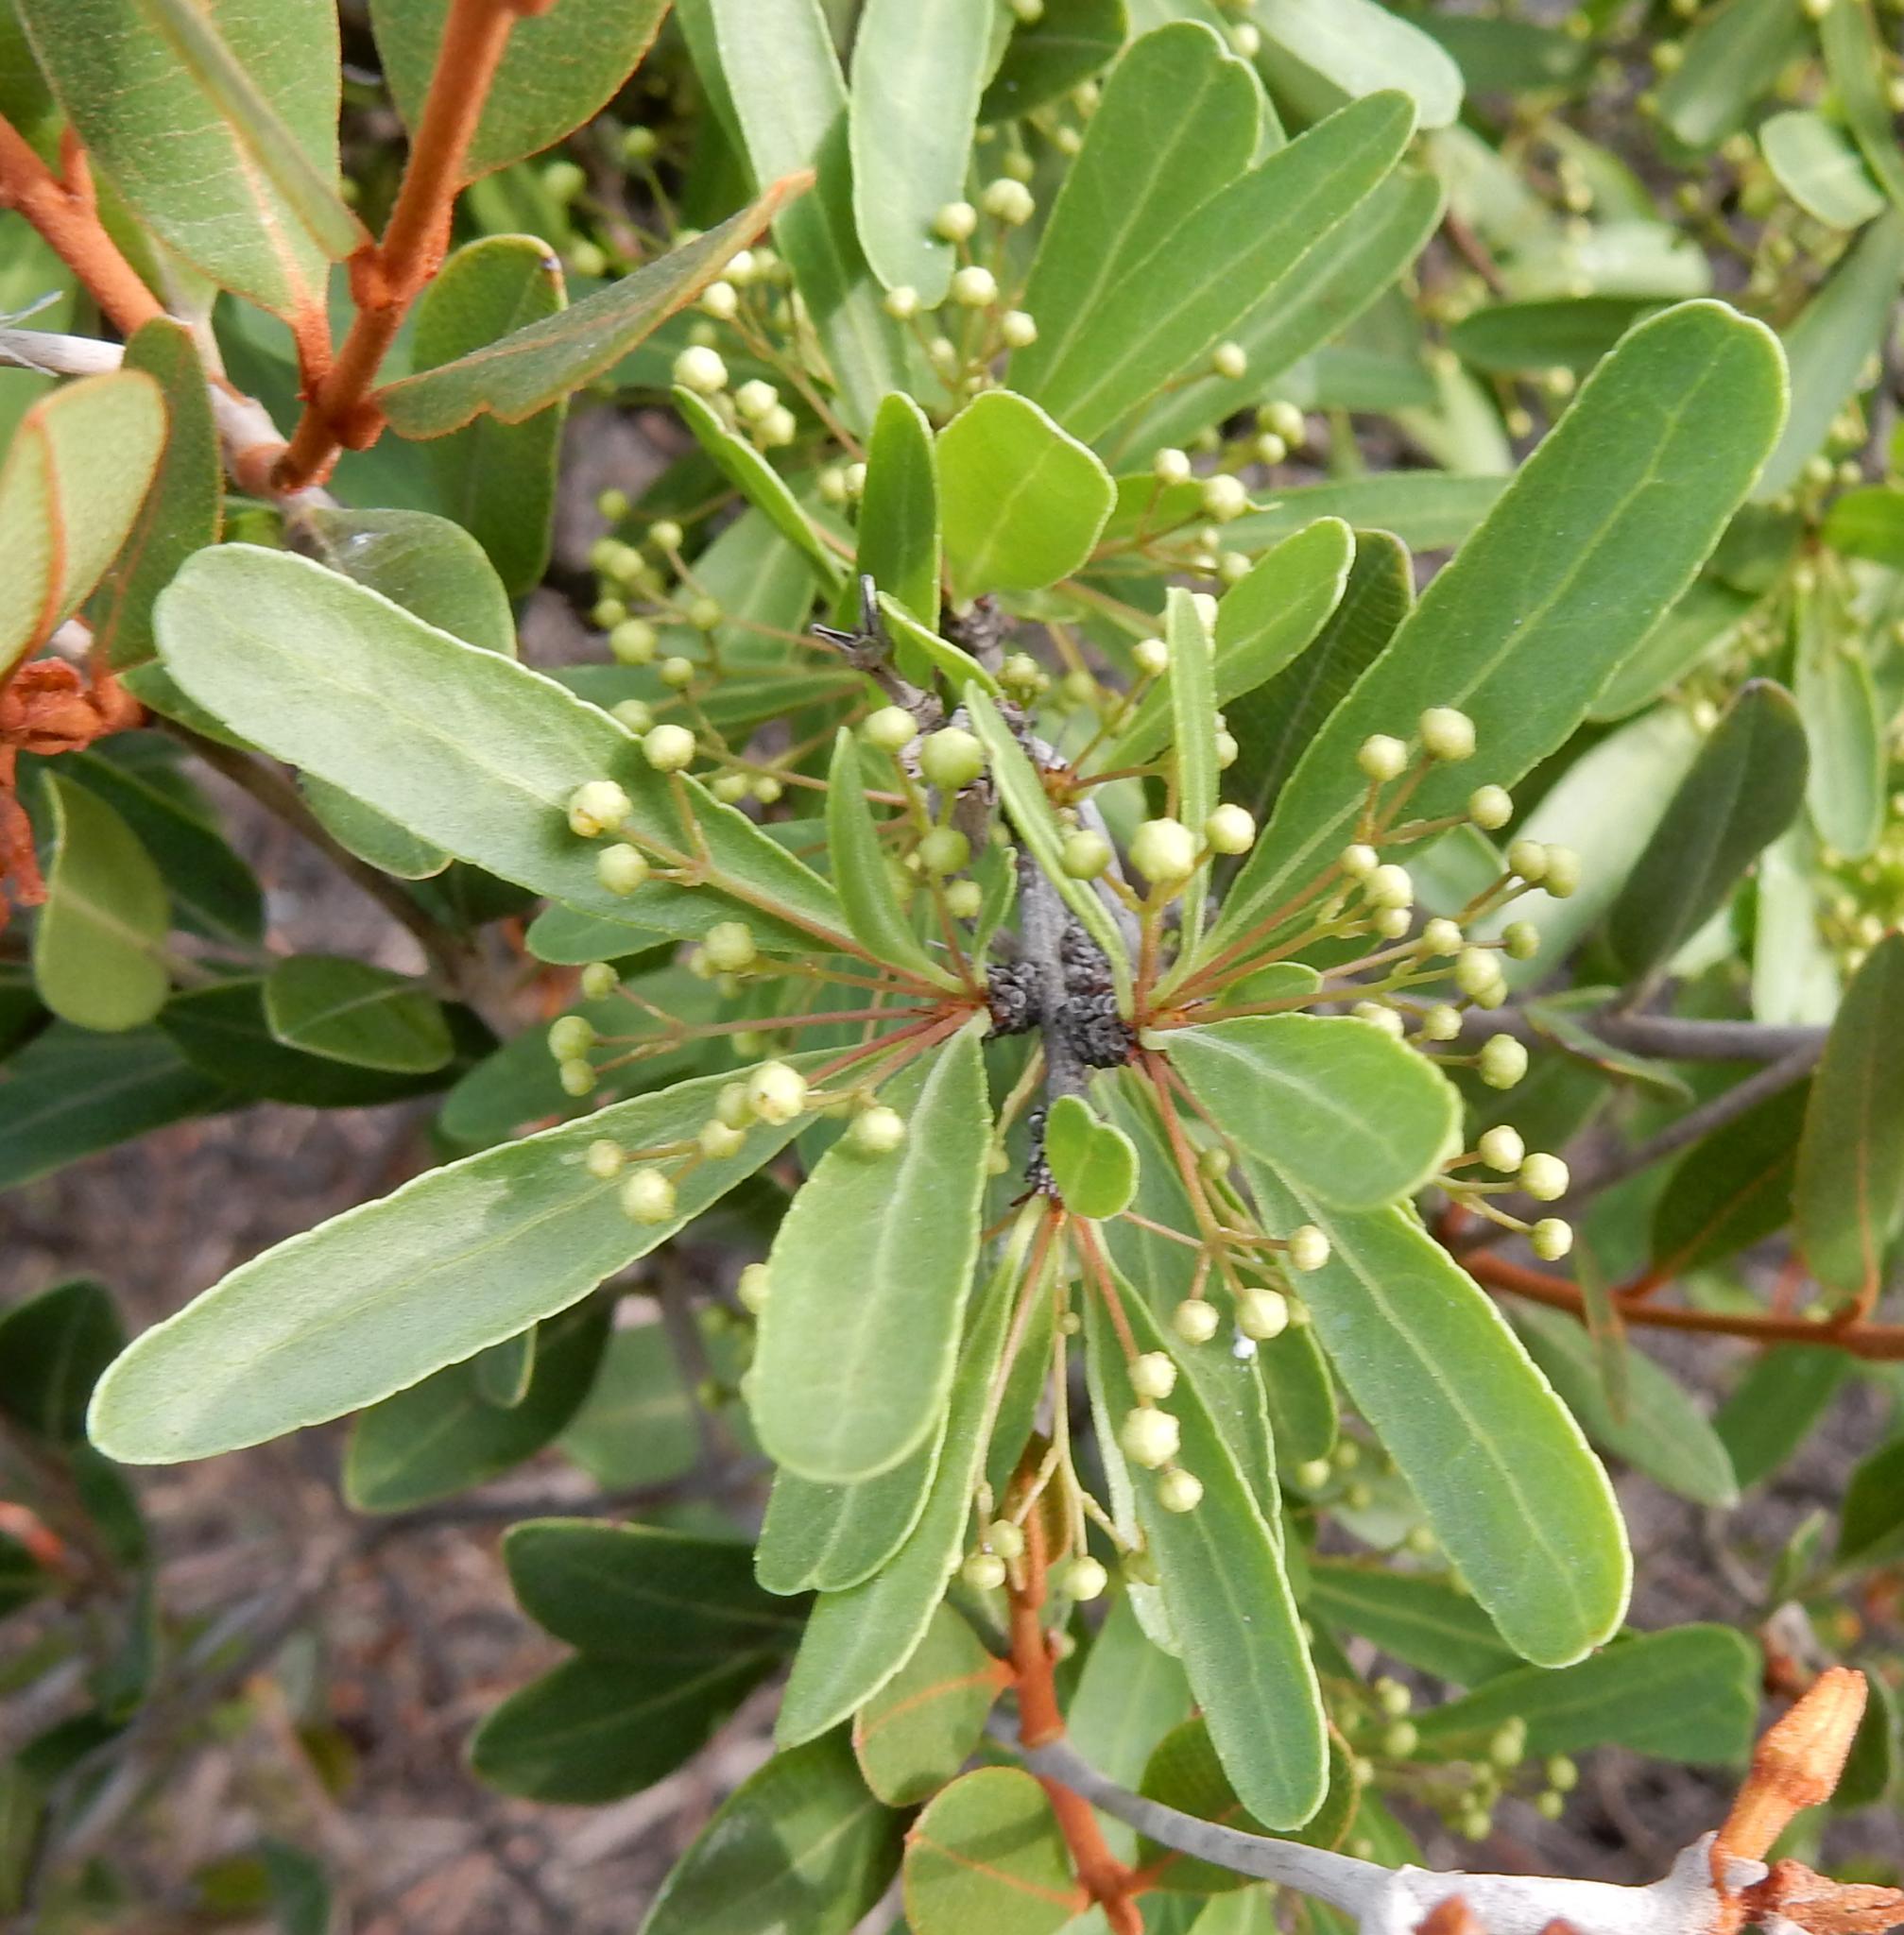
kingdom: Plantae
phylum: Tracheophyta
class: Magnoliopsida
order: Celastrales
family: Celastraceae
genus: Gymnosporia
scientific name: Gymnosporia tenuispina
